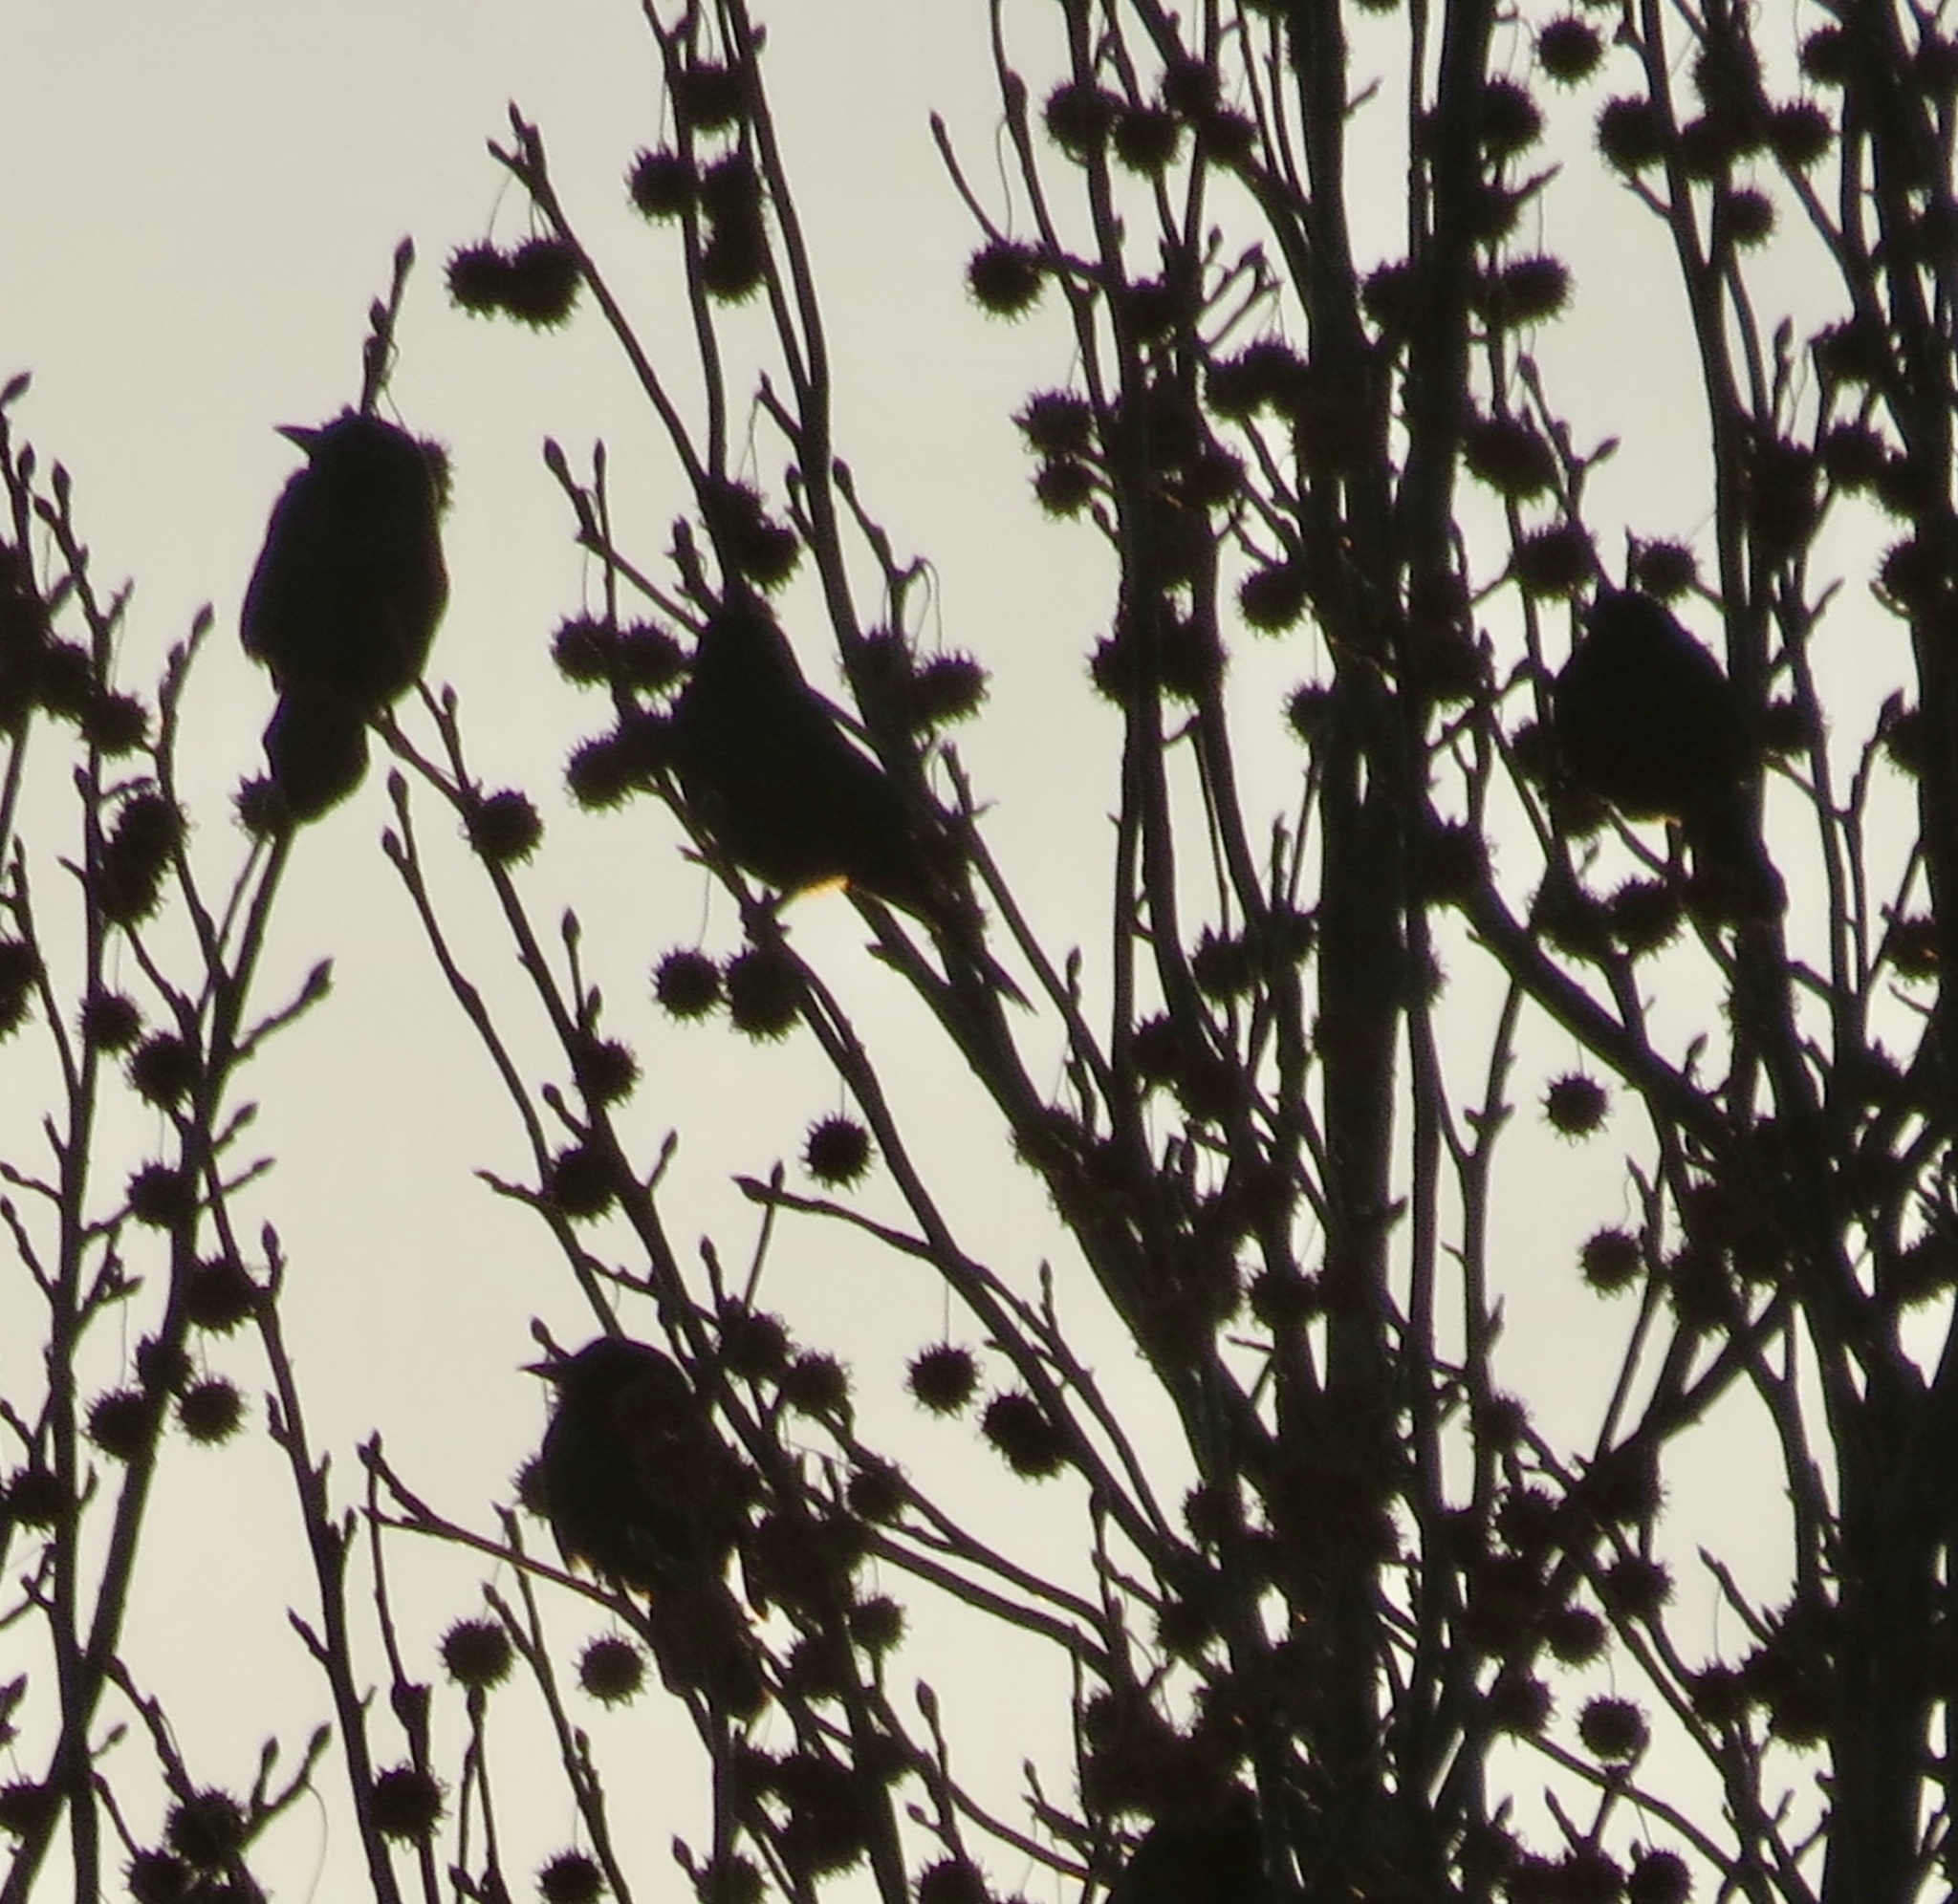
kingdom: Animalia
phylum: Chordata
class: Aves
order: Passeriformes
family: Icteridae
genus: Quiscalus
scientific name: Quiscalus quiscula
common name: Common grackle
